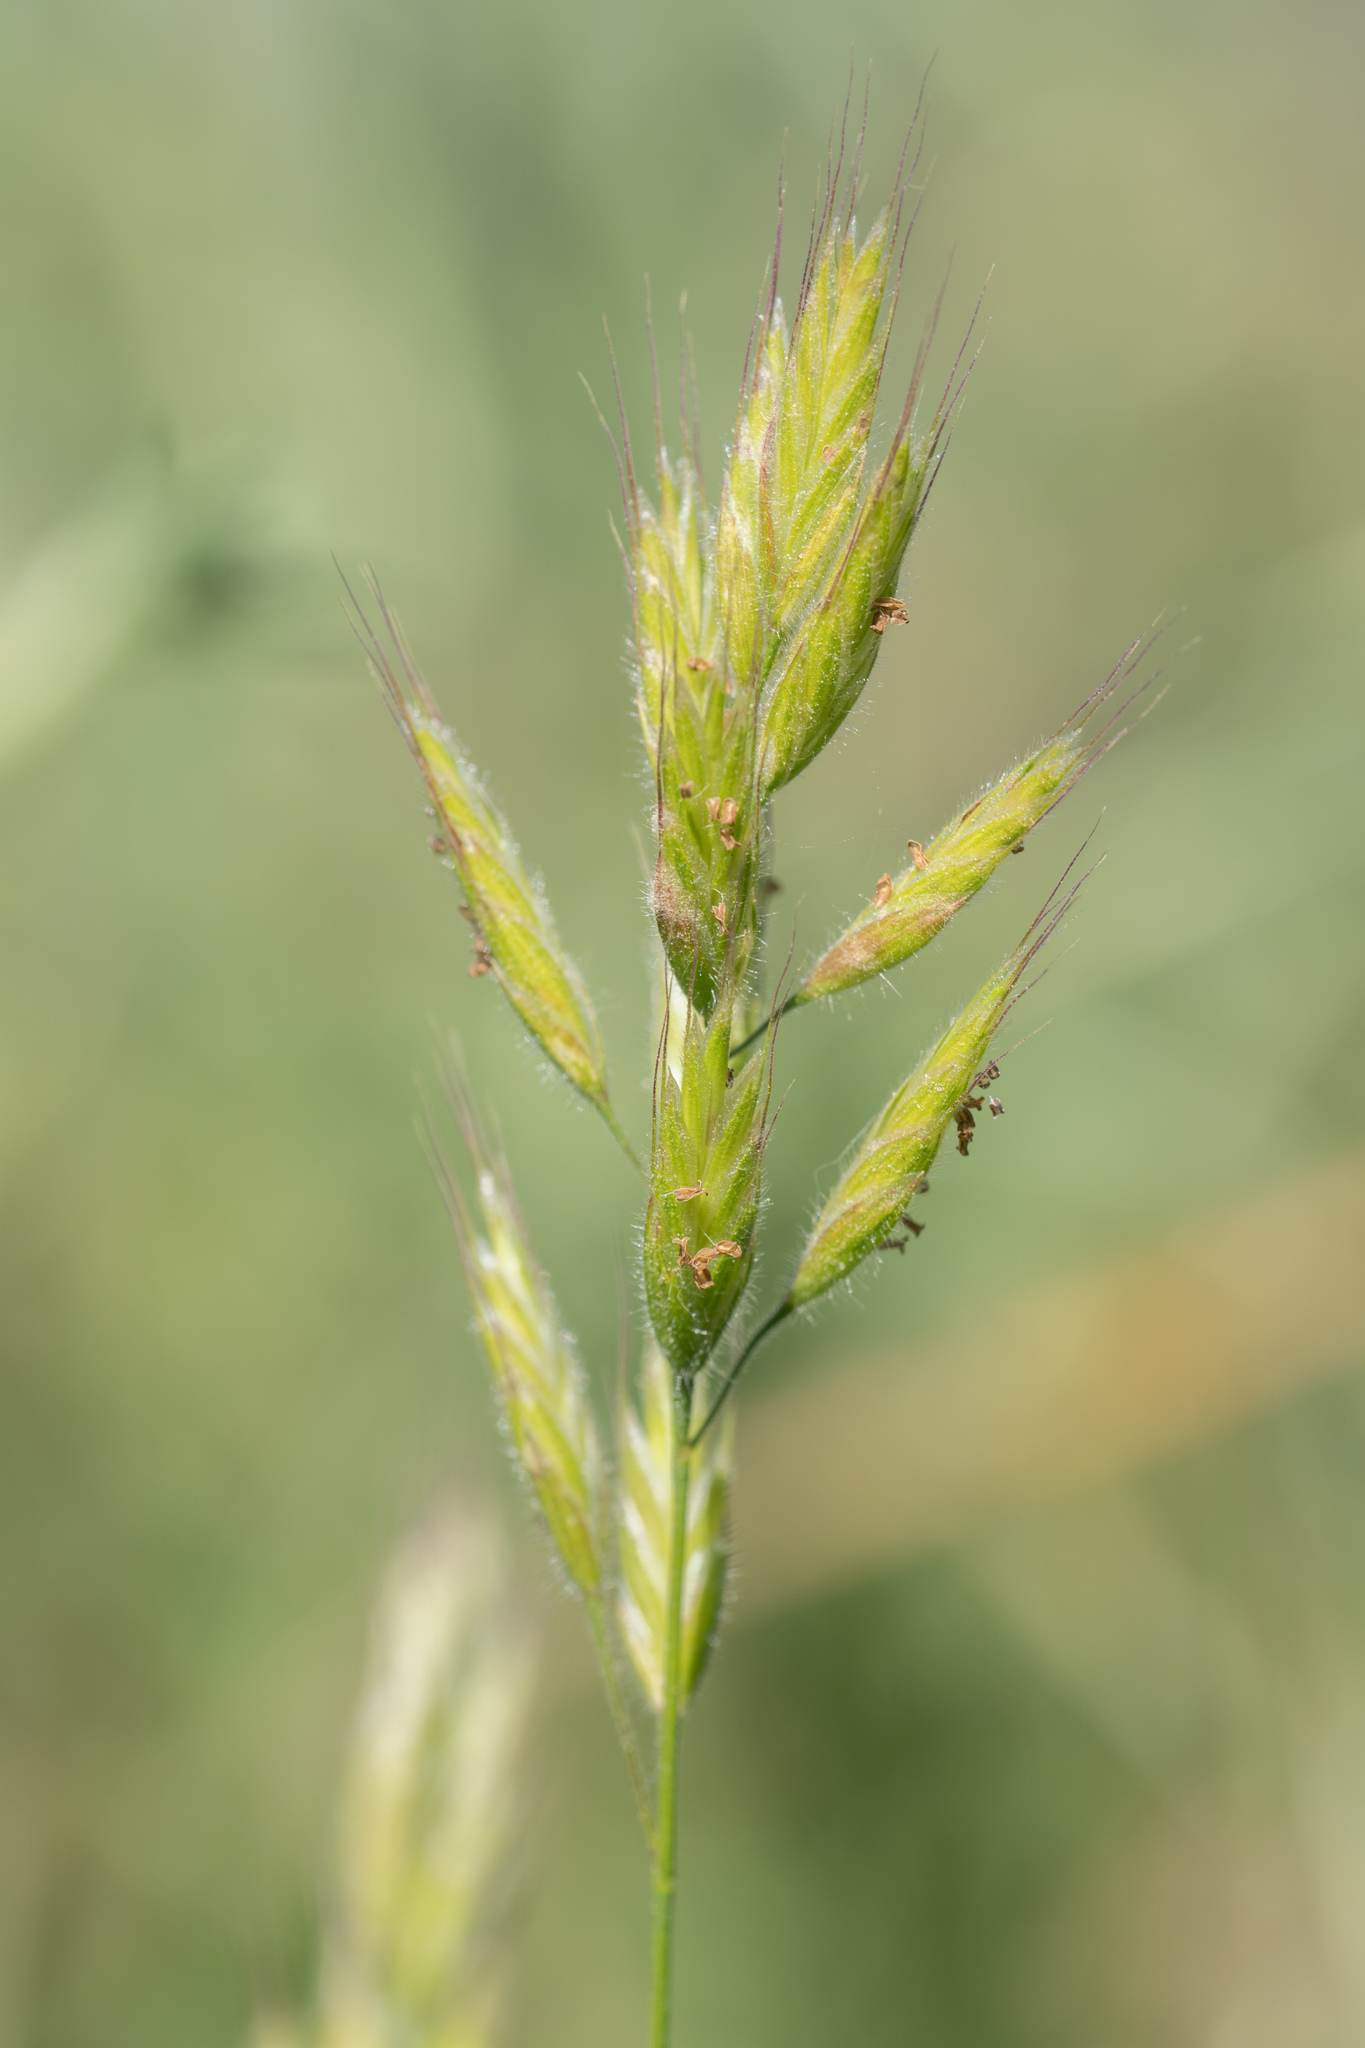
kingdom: Plantae
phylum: Tracheophyta
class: Liliopsida
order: Poales
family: Poaceae
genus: Bromus
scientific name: Bromus hordeaceus
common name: Soft brome
